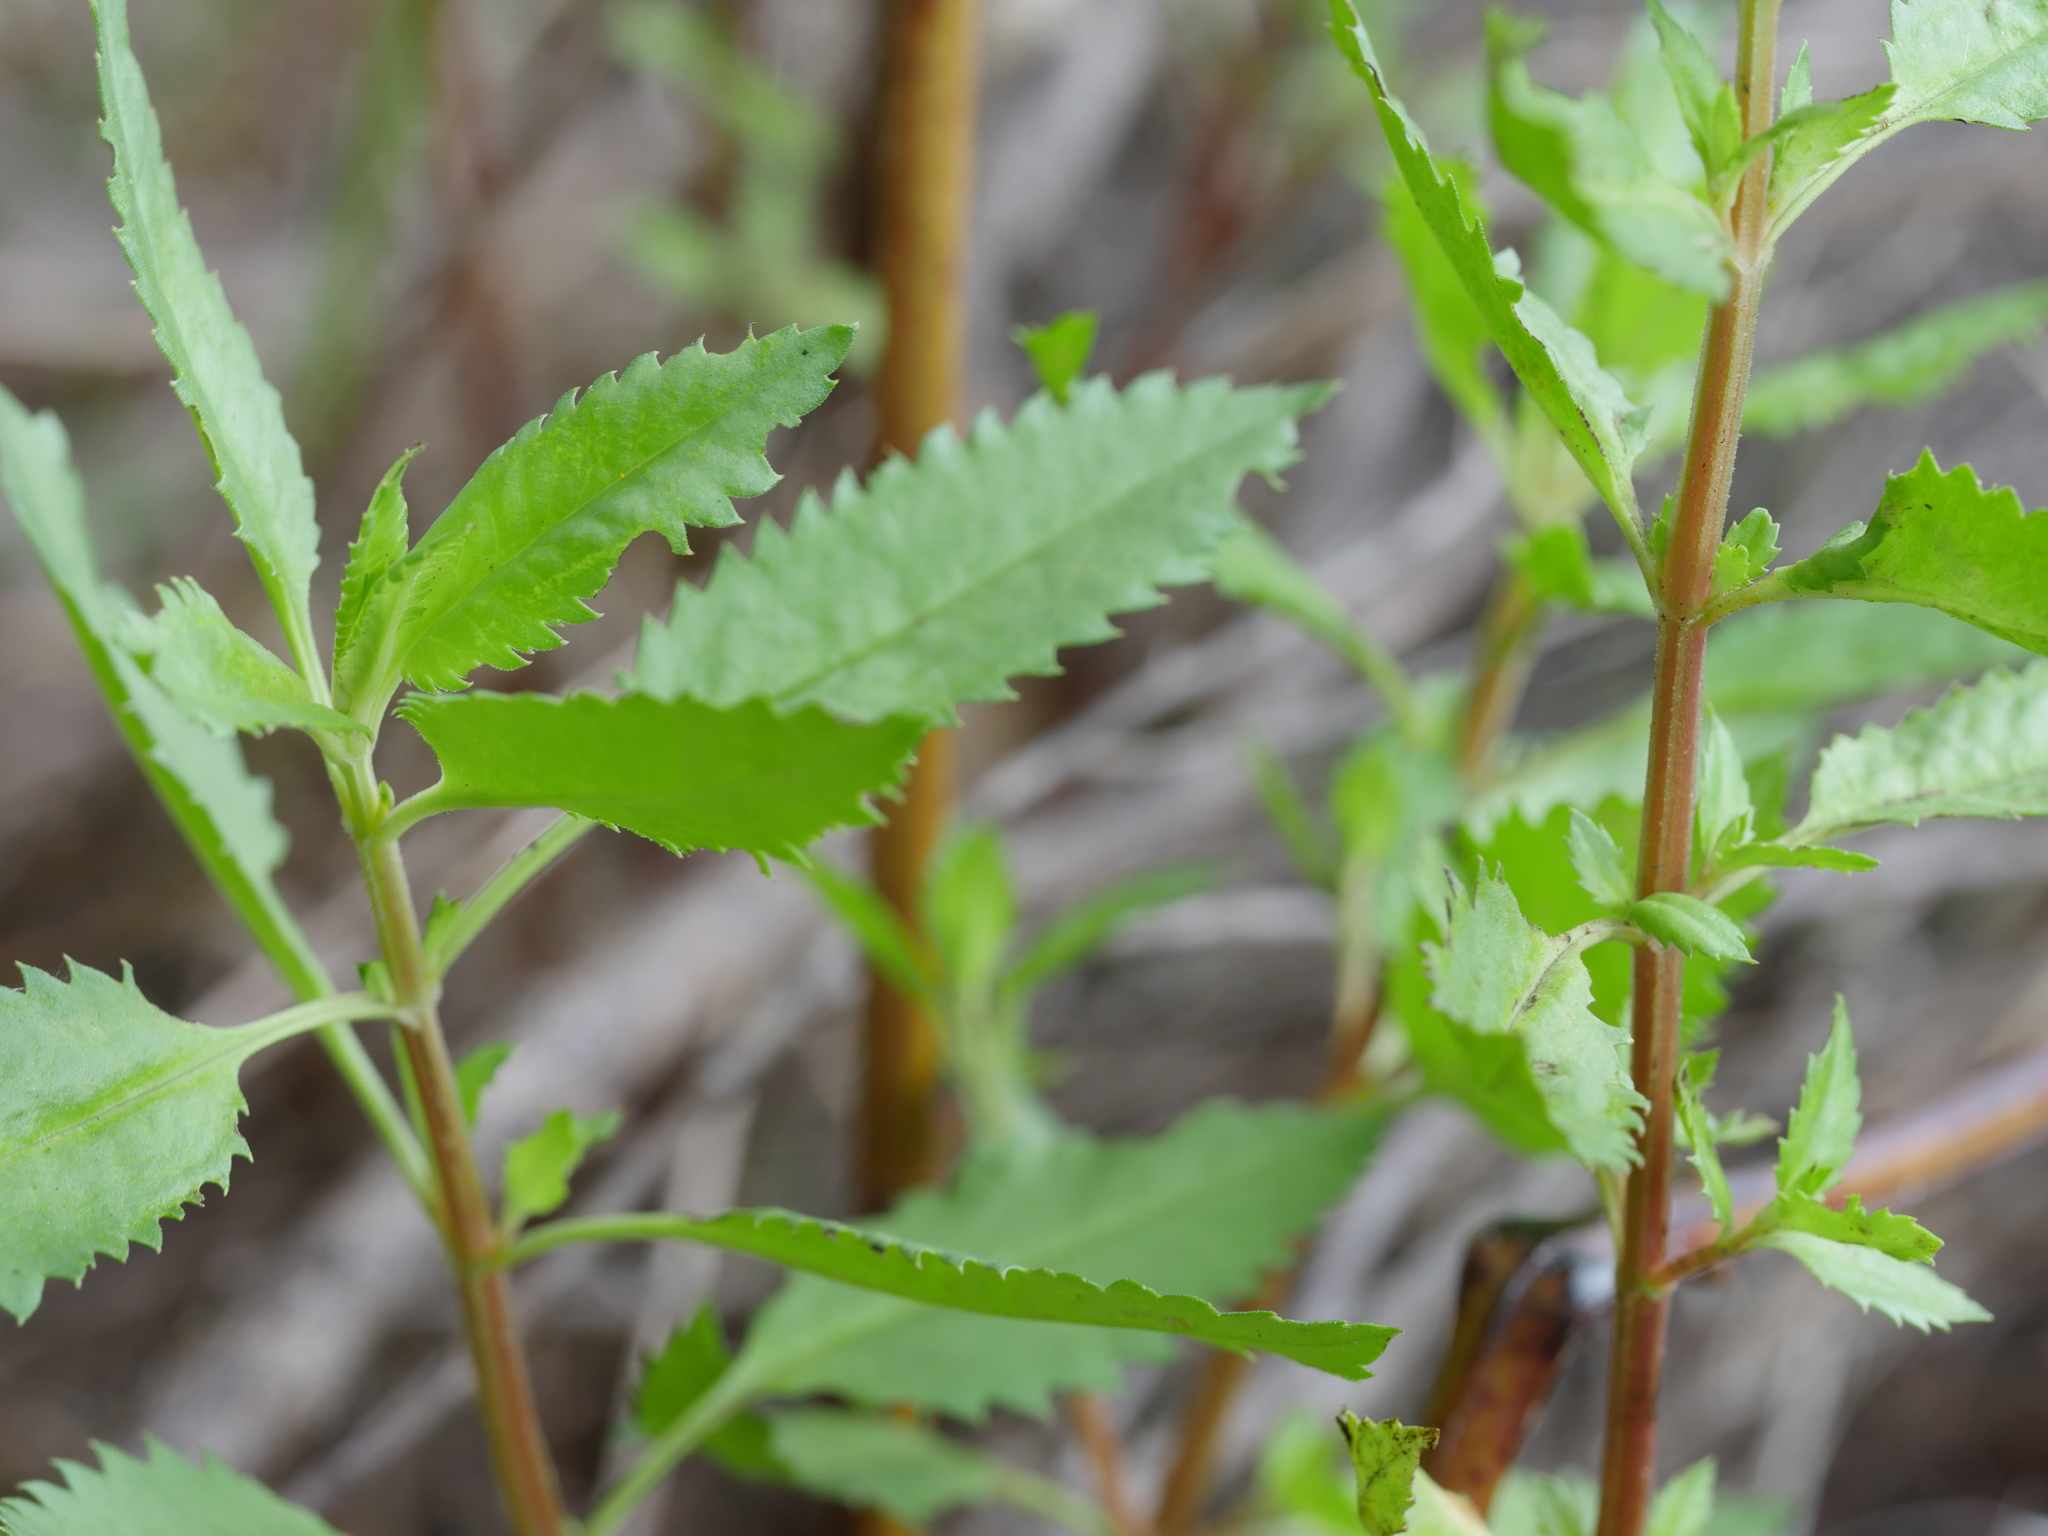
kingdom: Plantae
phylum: Tracheophyta
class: Magnoliopsida
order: Saxifragales
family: Haloragaceae
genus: Haloragis
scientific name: Haloragis erecta
